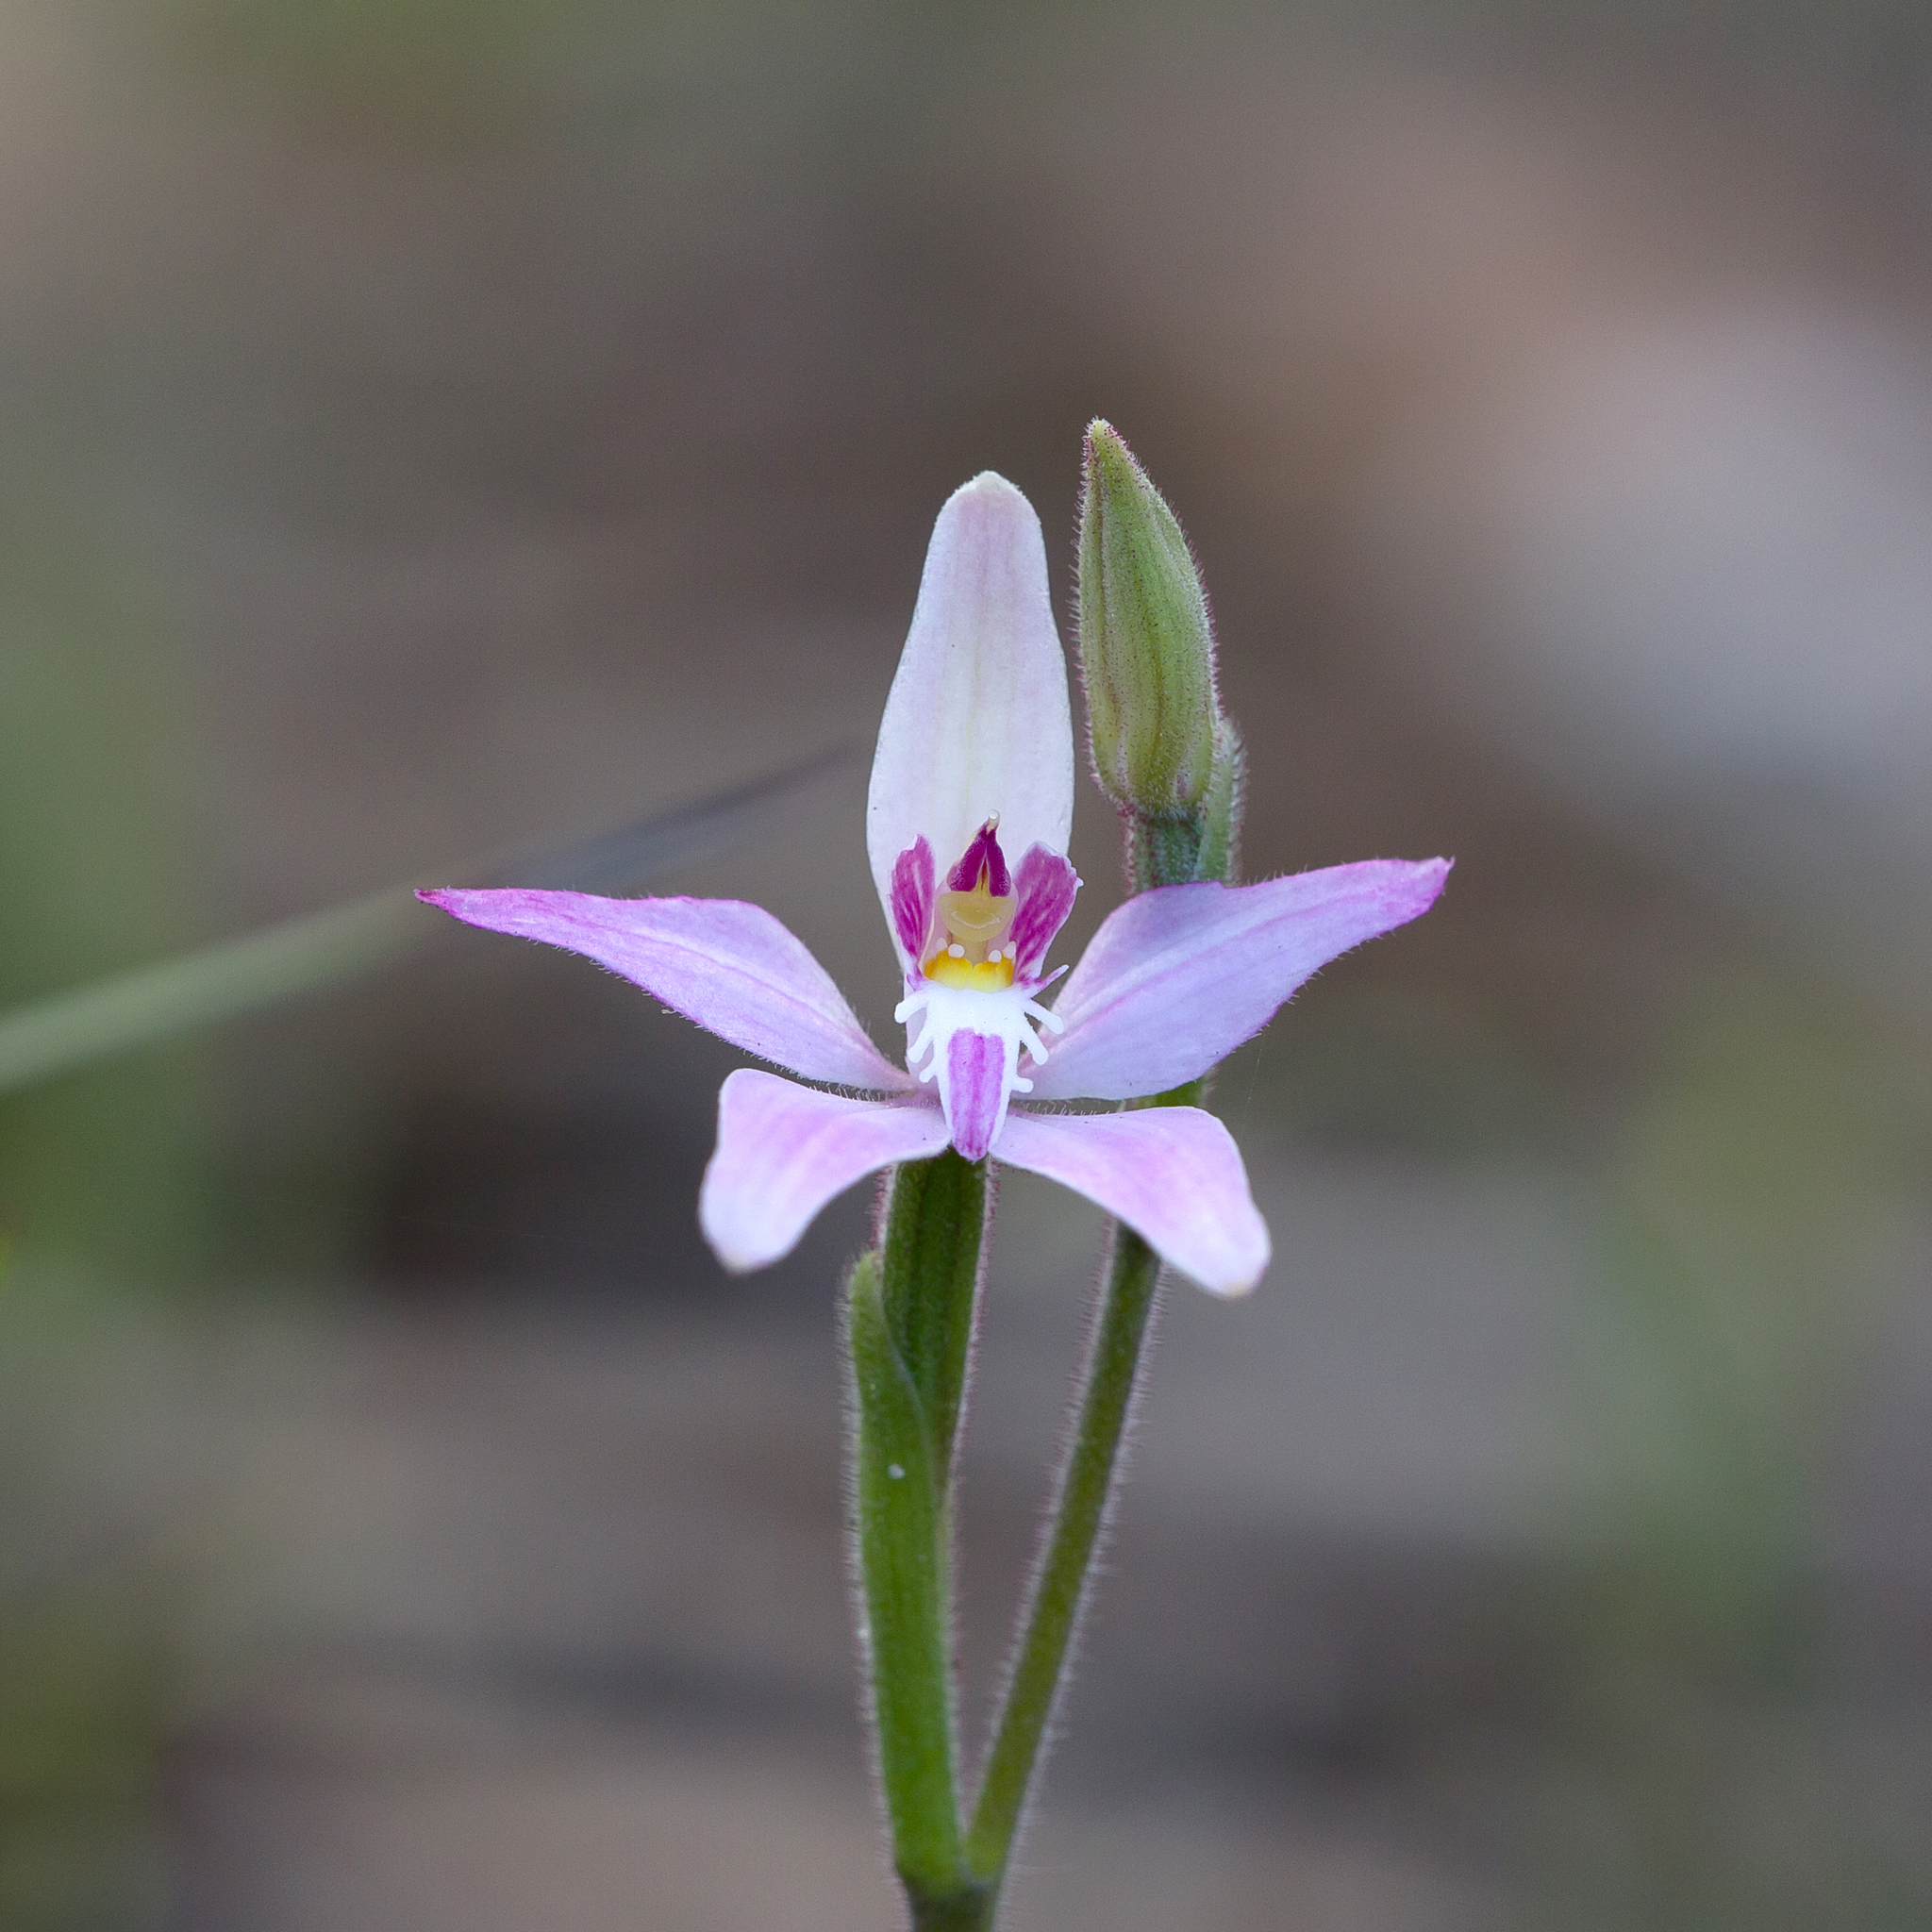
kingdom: Plantae
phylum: Tracheophyta
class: Liliopsida
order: Asparagales
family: Orchidaceae
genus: Caladenia
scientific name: Caladenia latifolia
